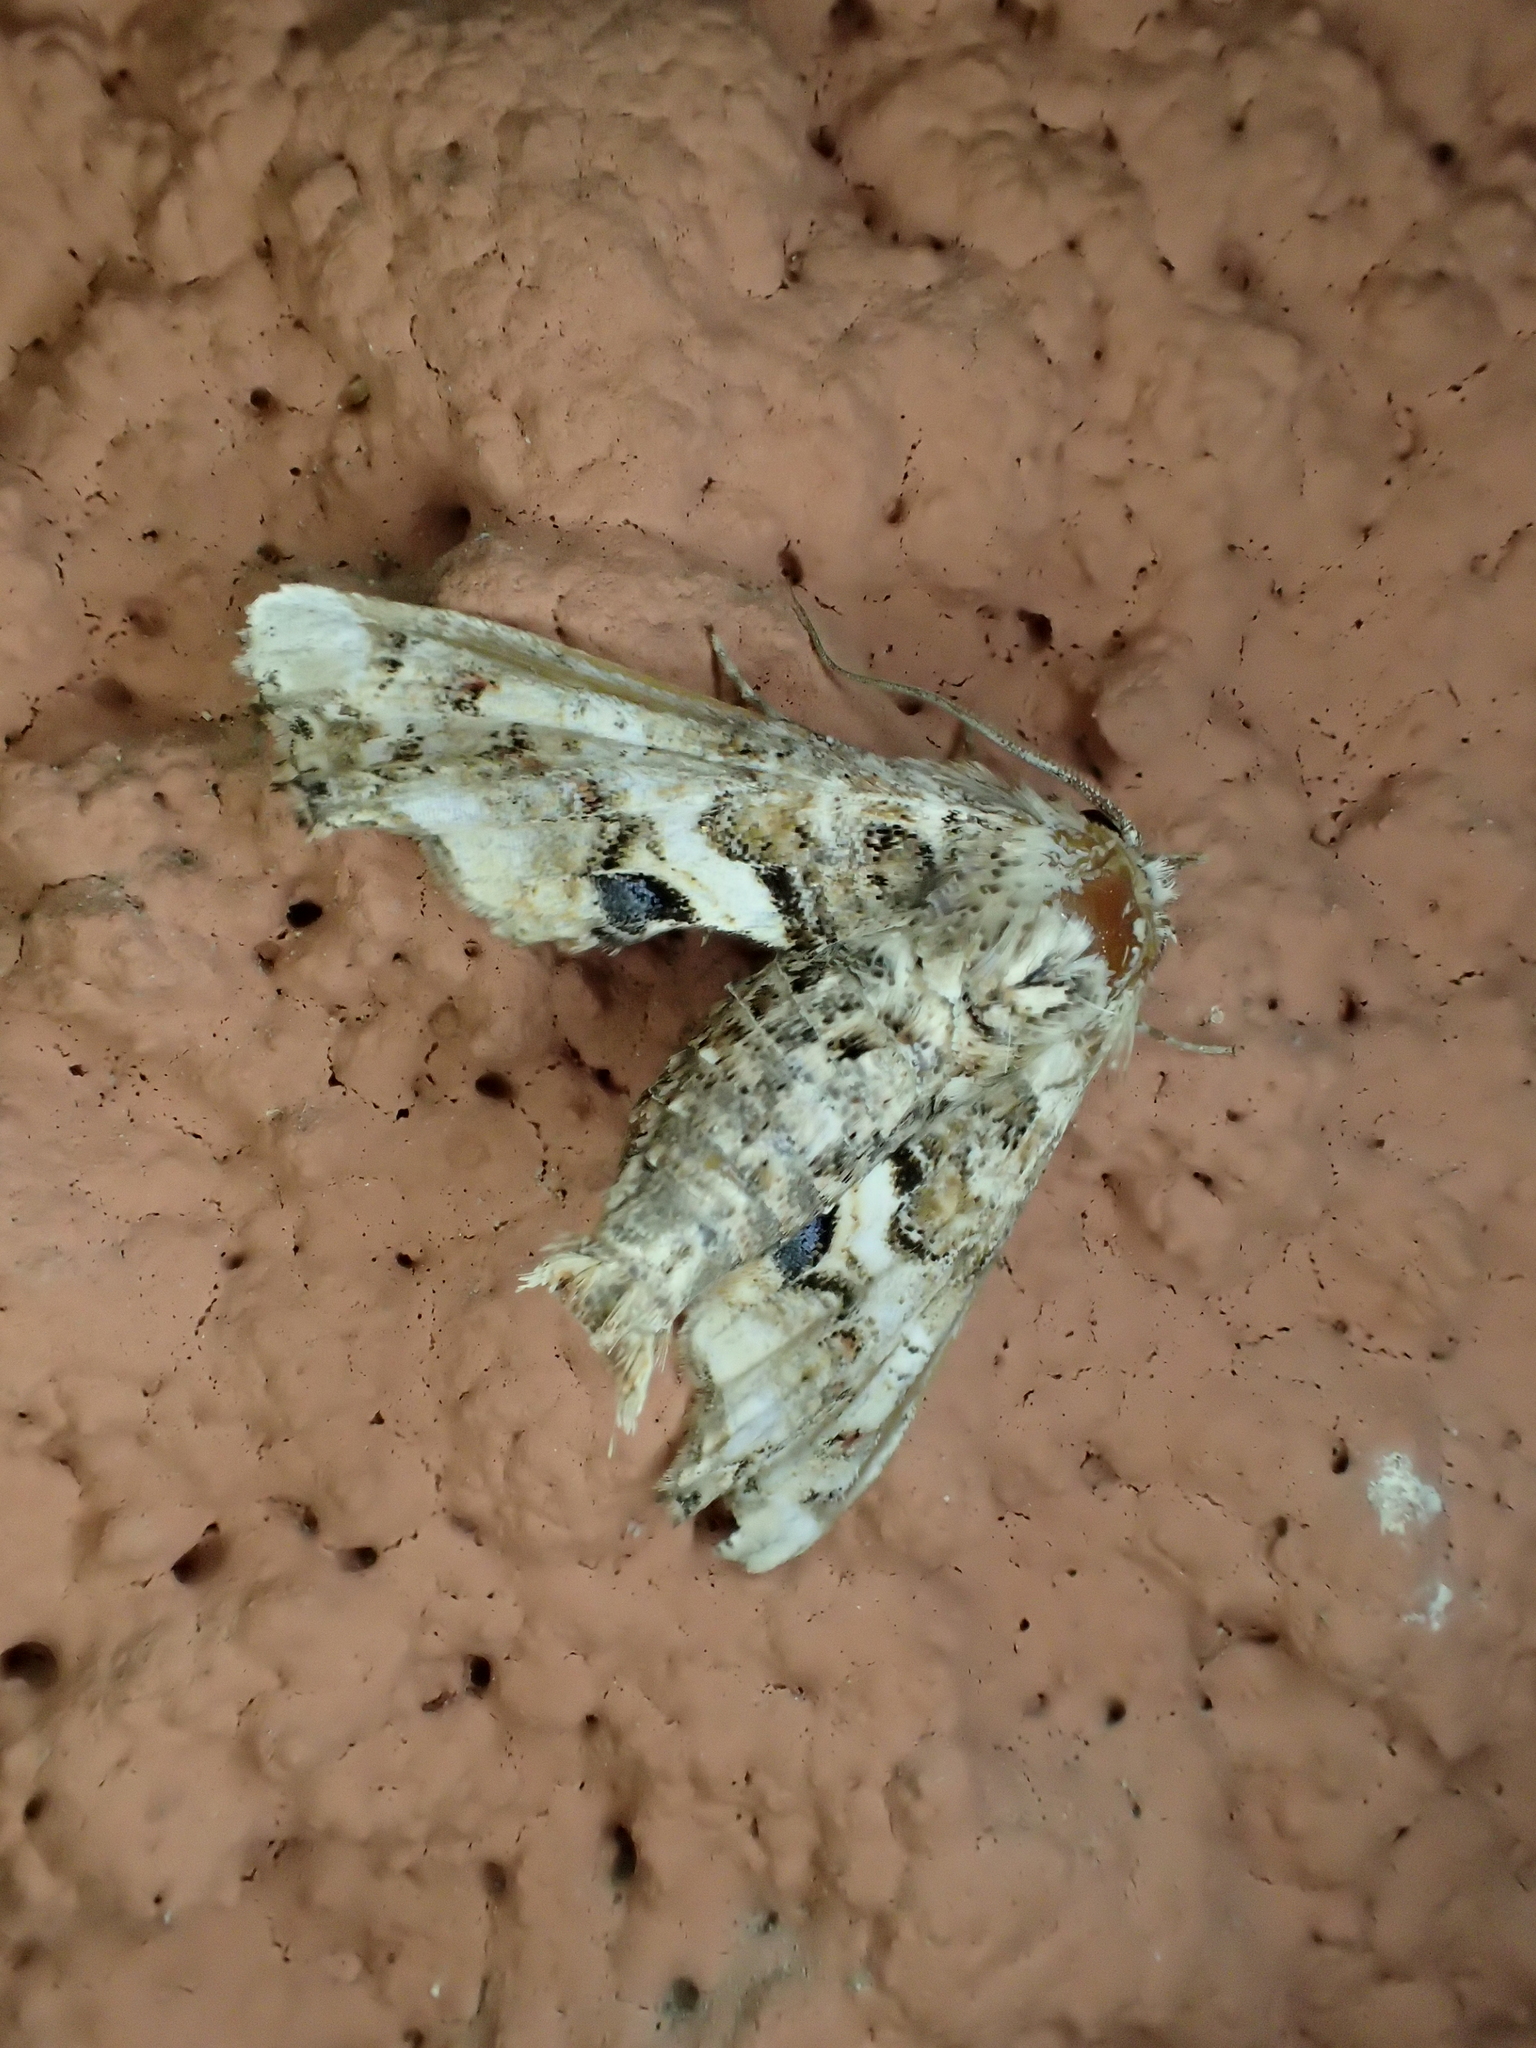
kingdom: Animalia
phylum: Arthropoda
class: Insecta
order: Lepidoptera
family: Euteliidae
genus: Eutelia
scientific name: Eutelia adulatrix
